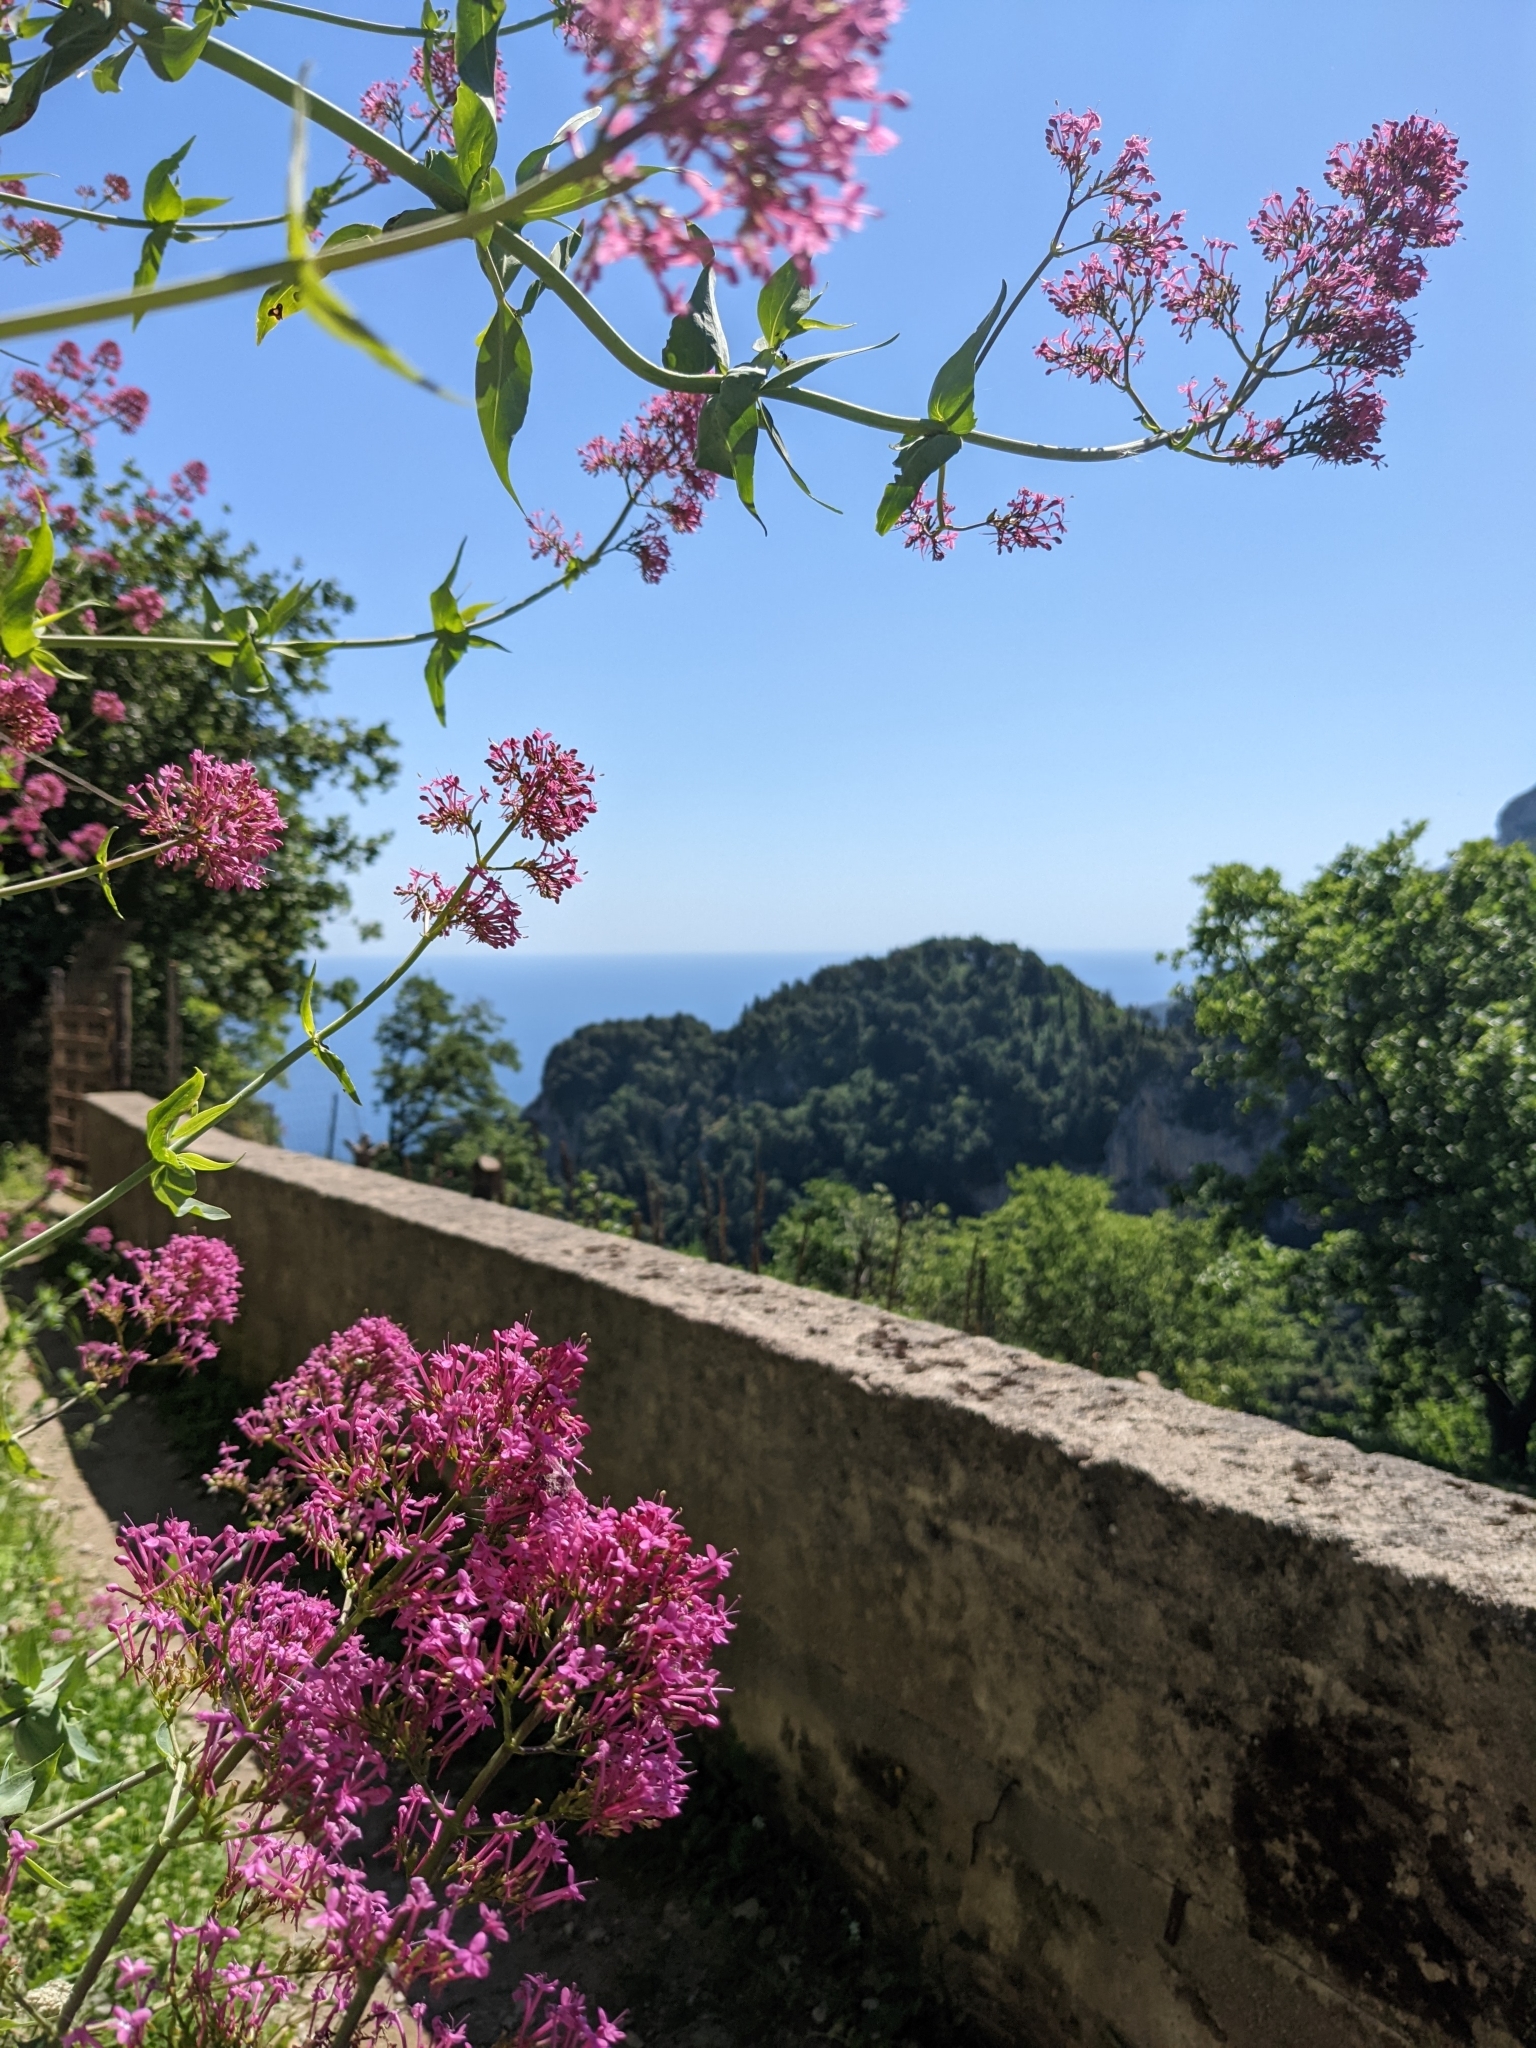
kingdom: Plantae
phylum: Tracheophyta
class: Magnoliopsida
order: Dipsacales
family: Caprifoliaceae
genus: Centranthus
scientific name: Centranthus ruber
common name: Red valerian
